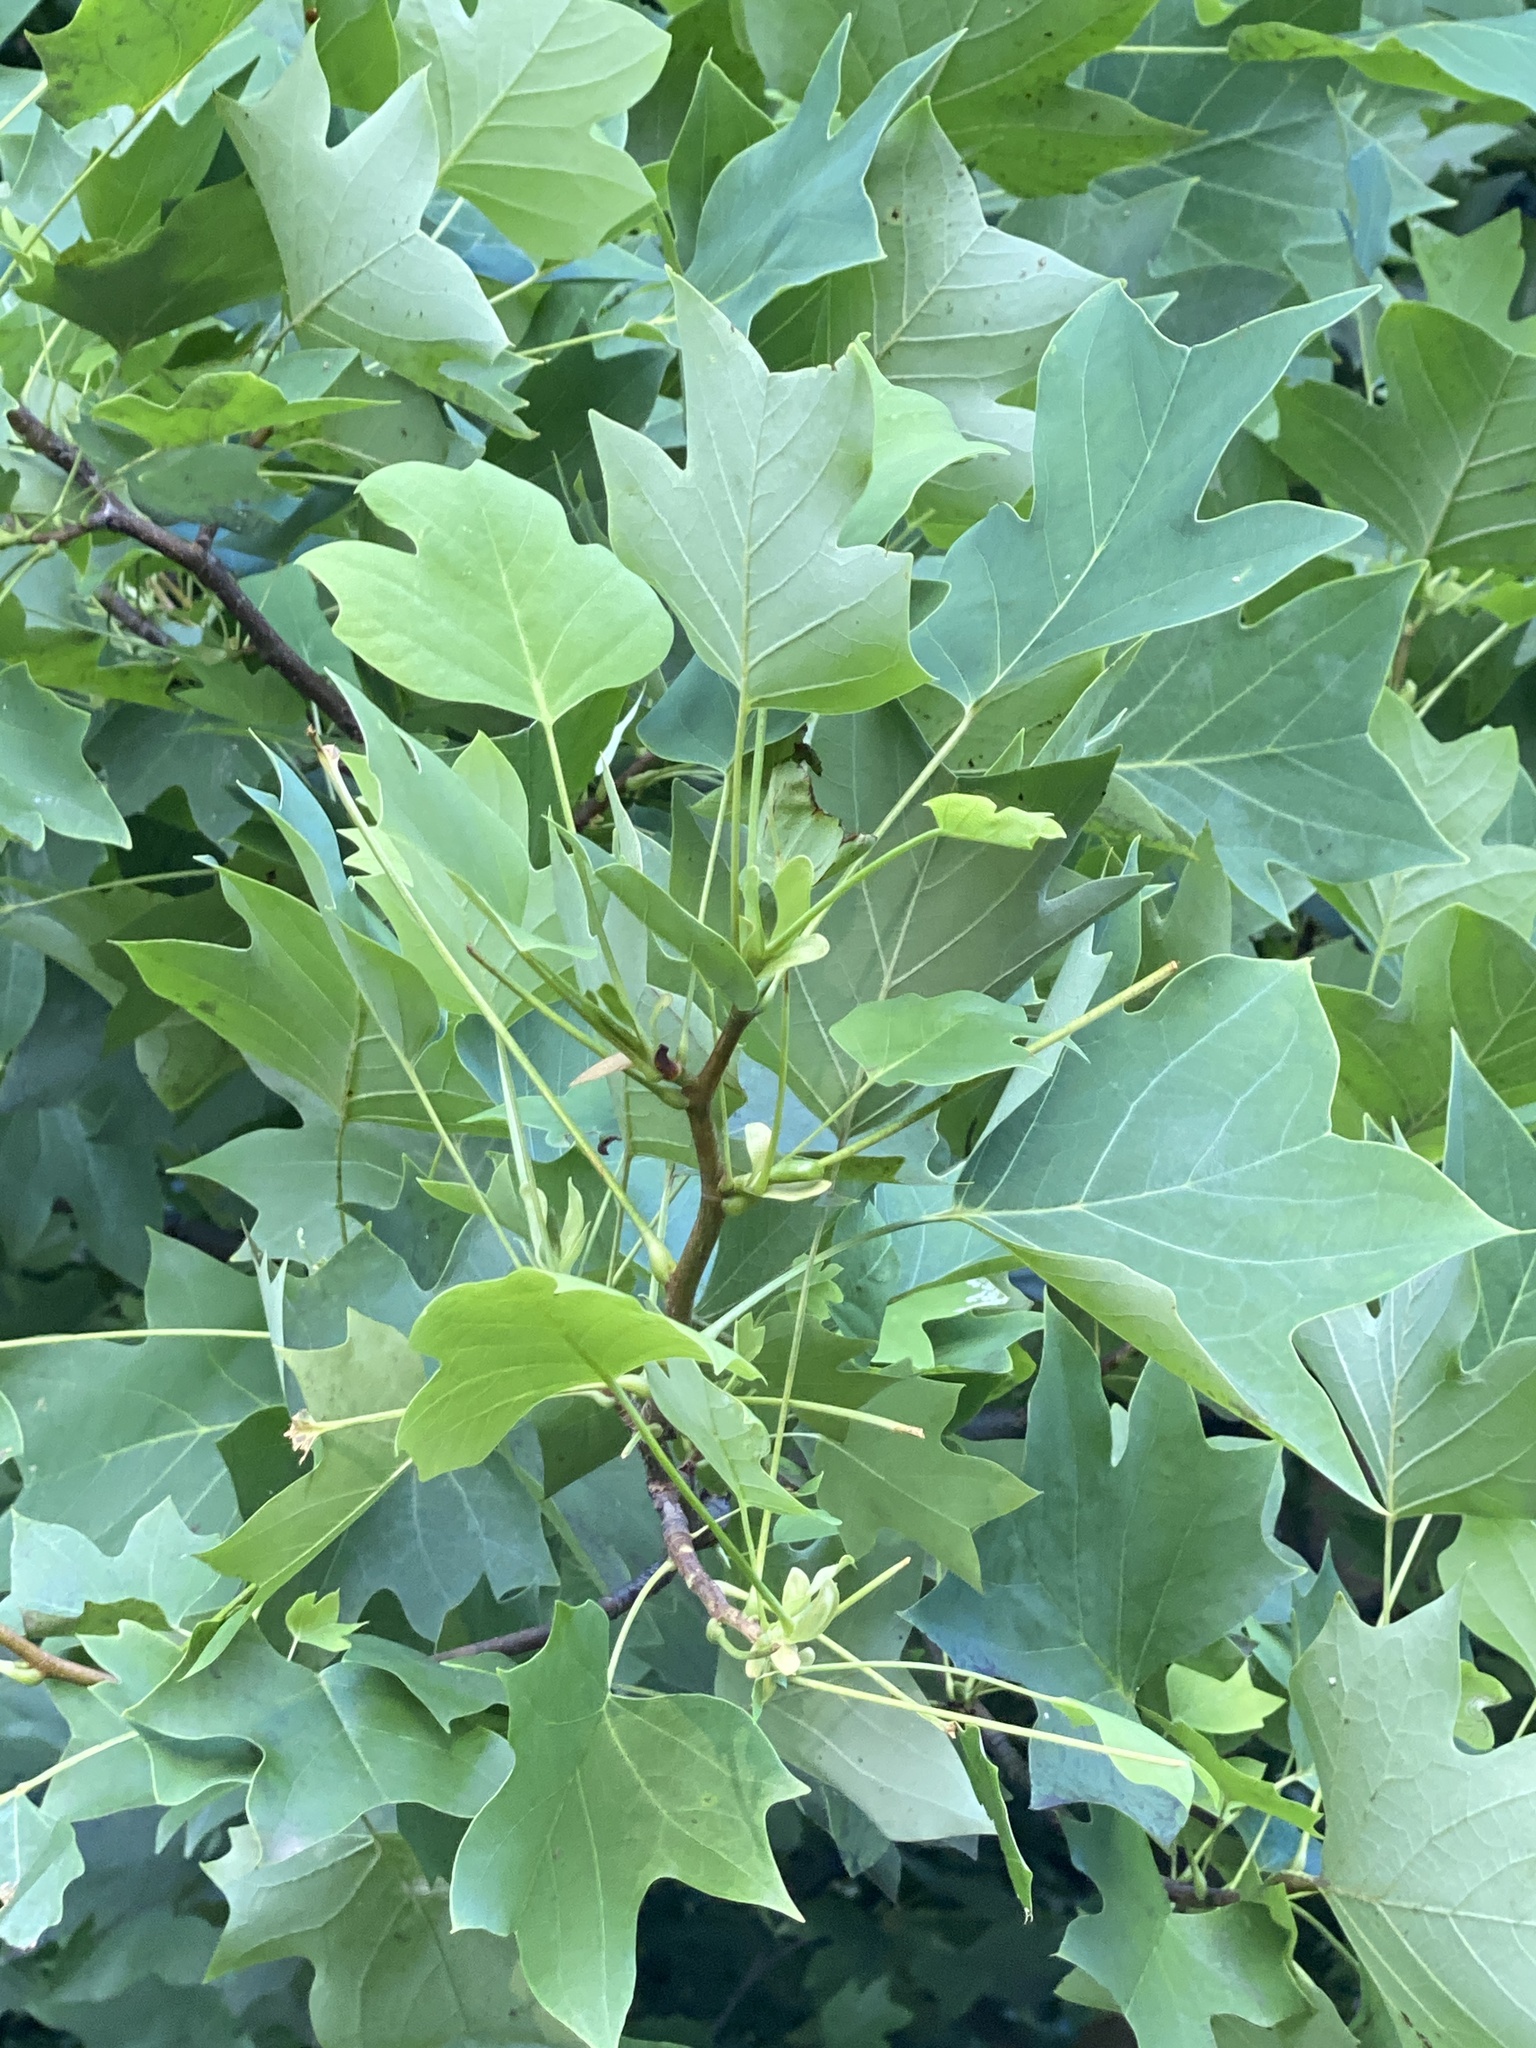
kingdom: Plantae
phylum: Tracheophyta
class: Magnoliopsida
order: Magnoliales
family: Magnoliaceae
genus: Liriodendron
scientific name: Liriodendron tulipifera
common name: Tulip tree
